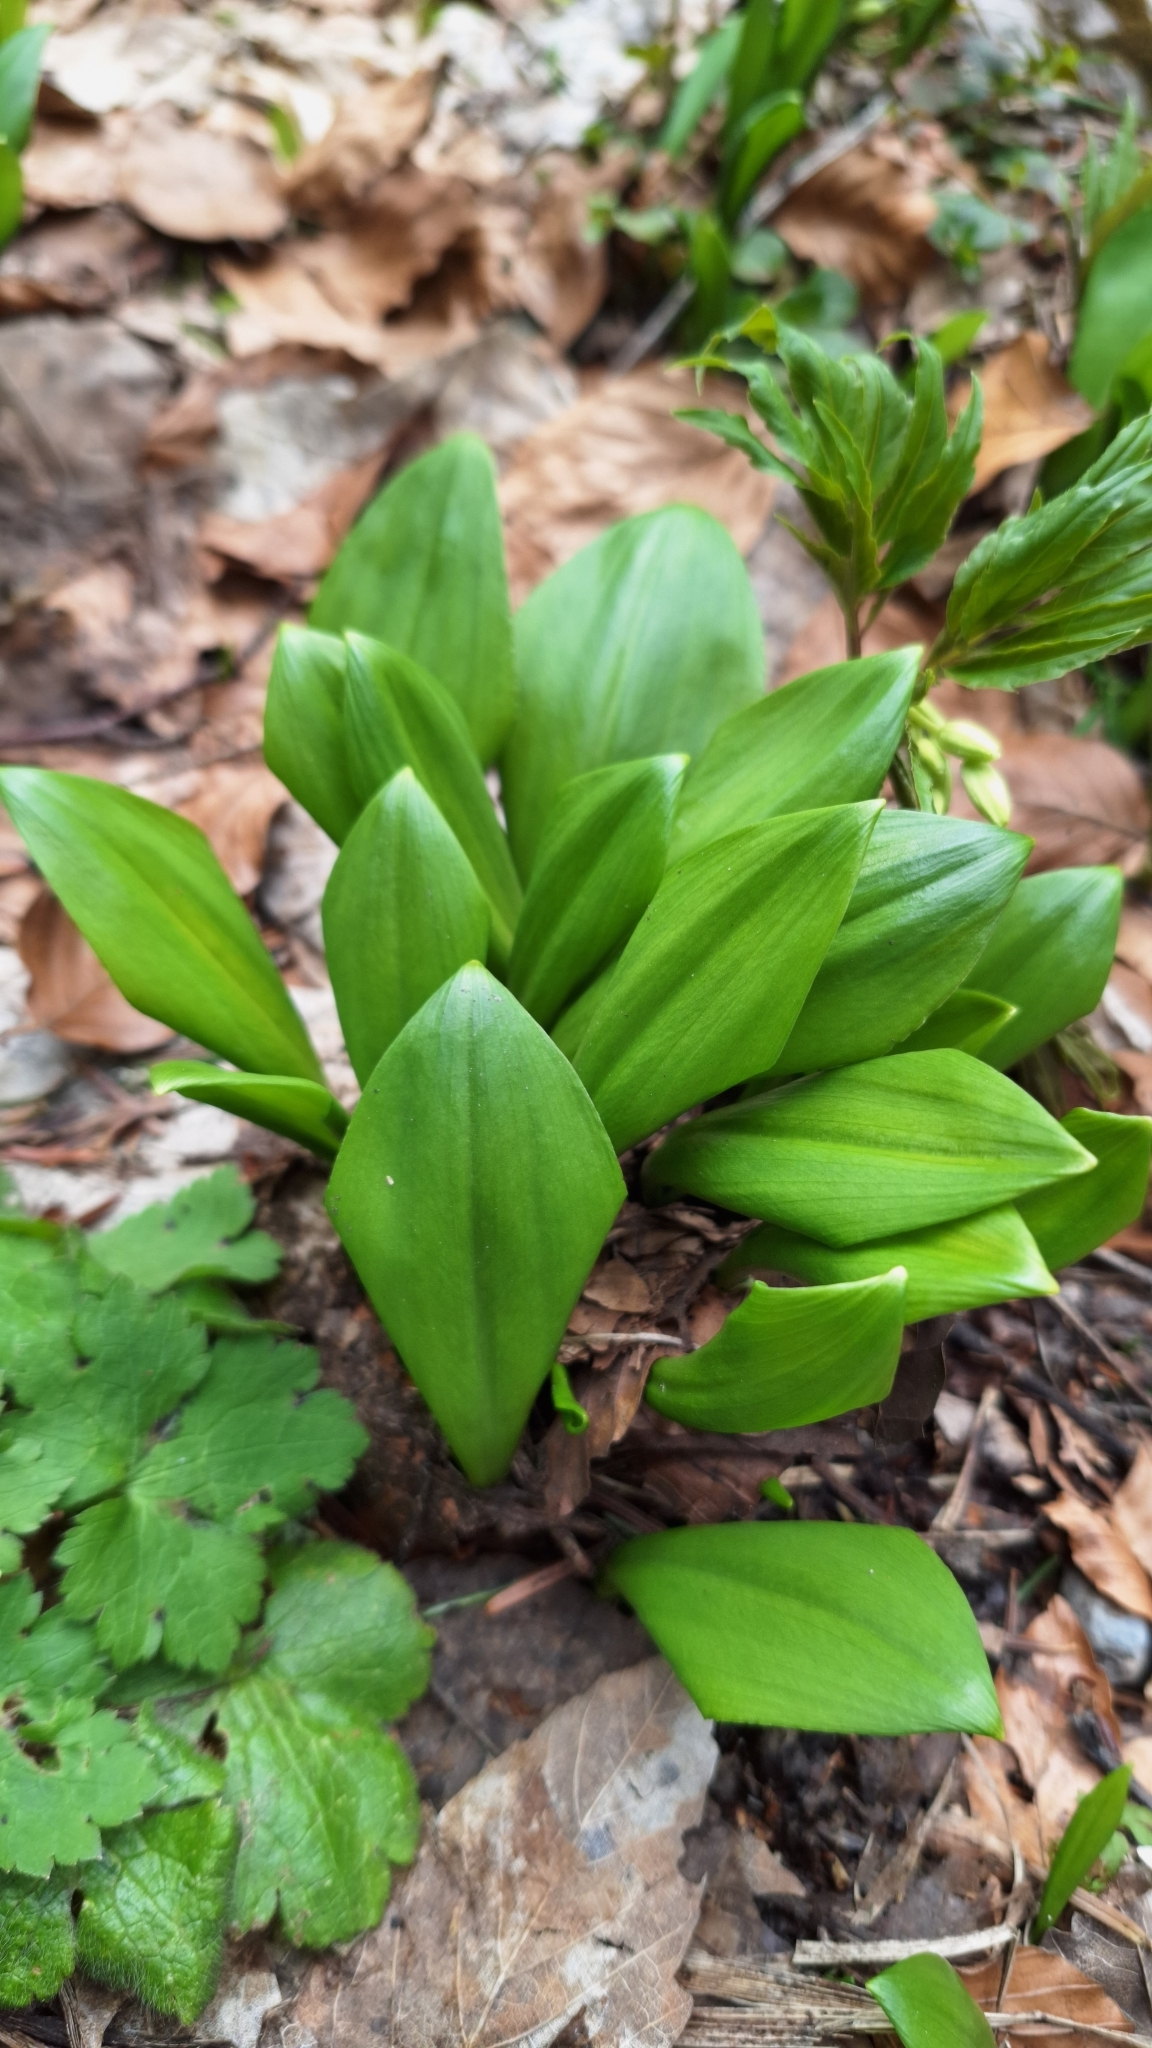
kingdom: Plantae
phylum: Tracheophyta
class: Liliopsida
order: Asparagales
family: Amaryllidaceae
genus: Allium
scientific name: Allium ursinum
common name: Ramsons
